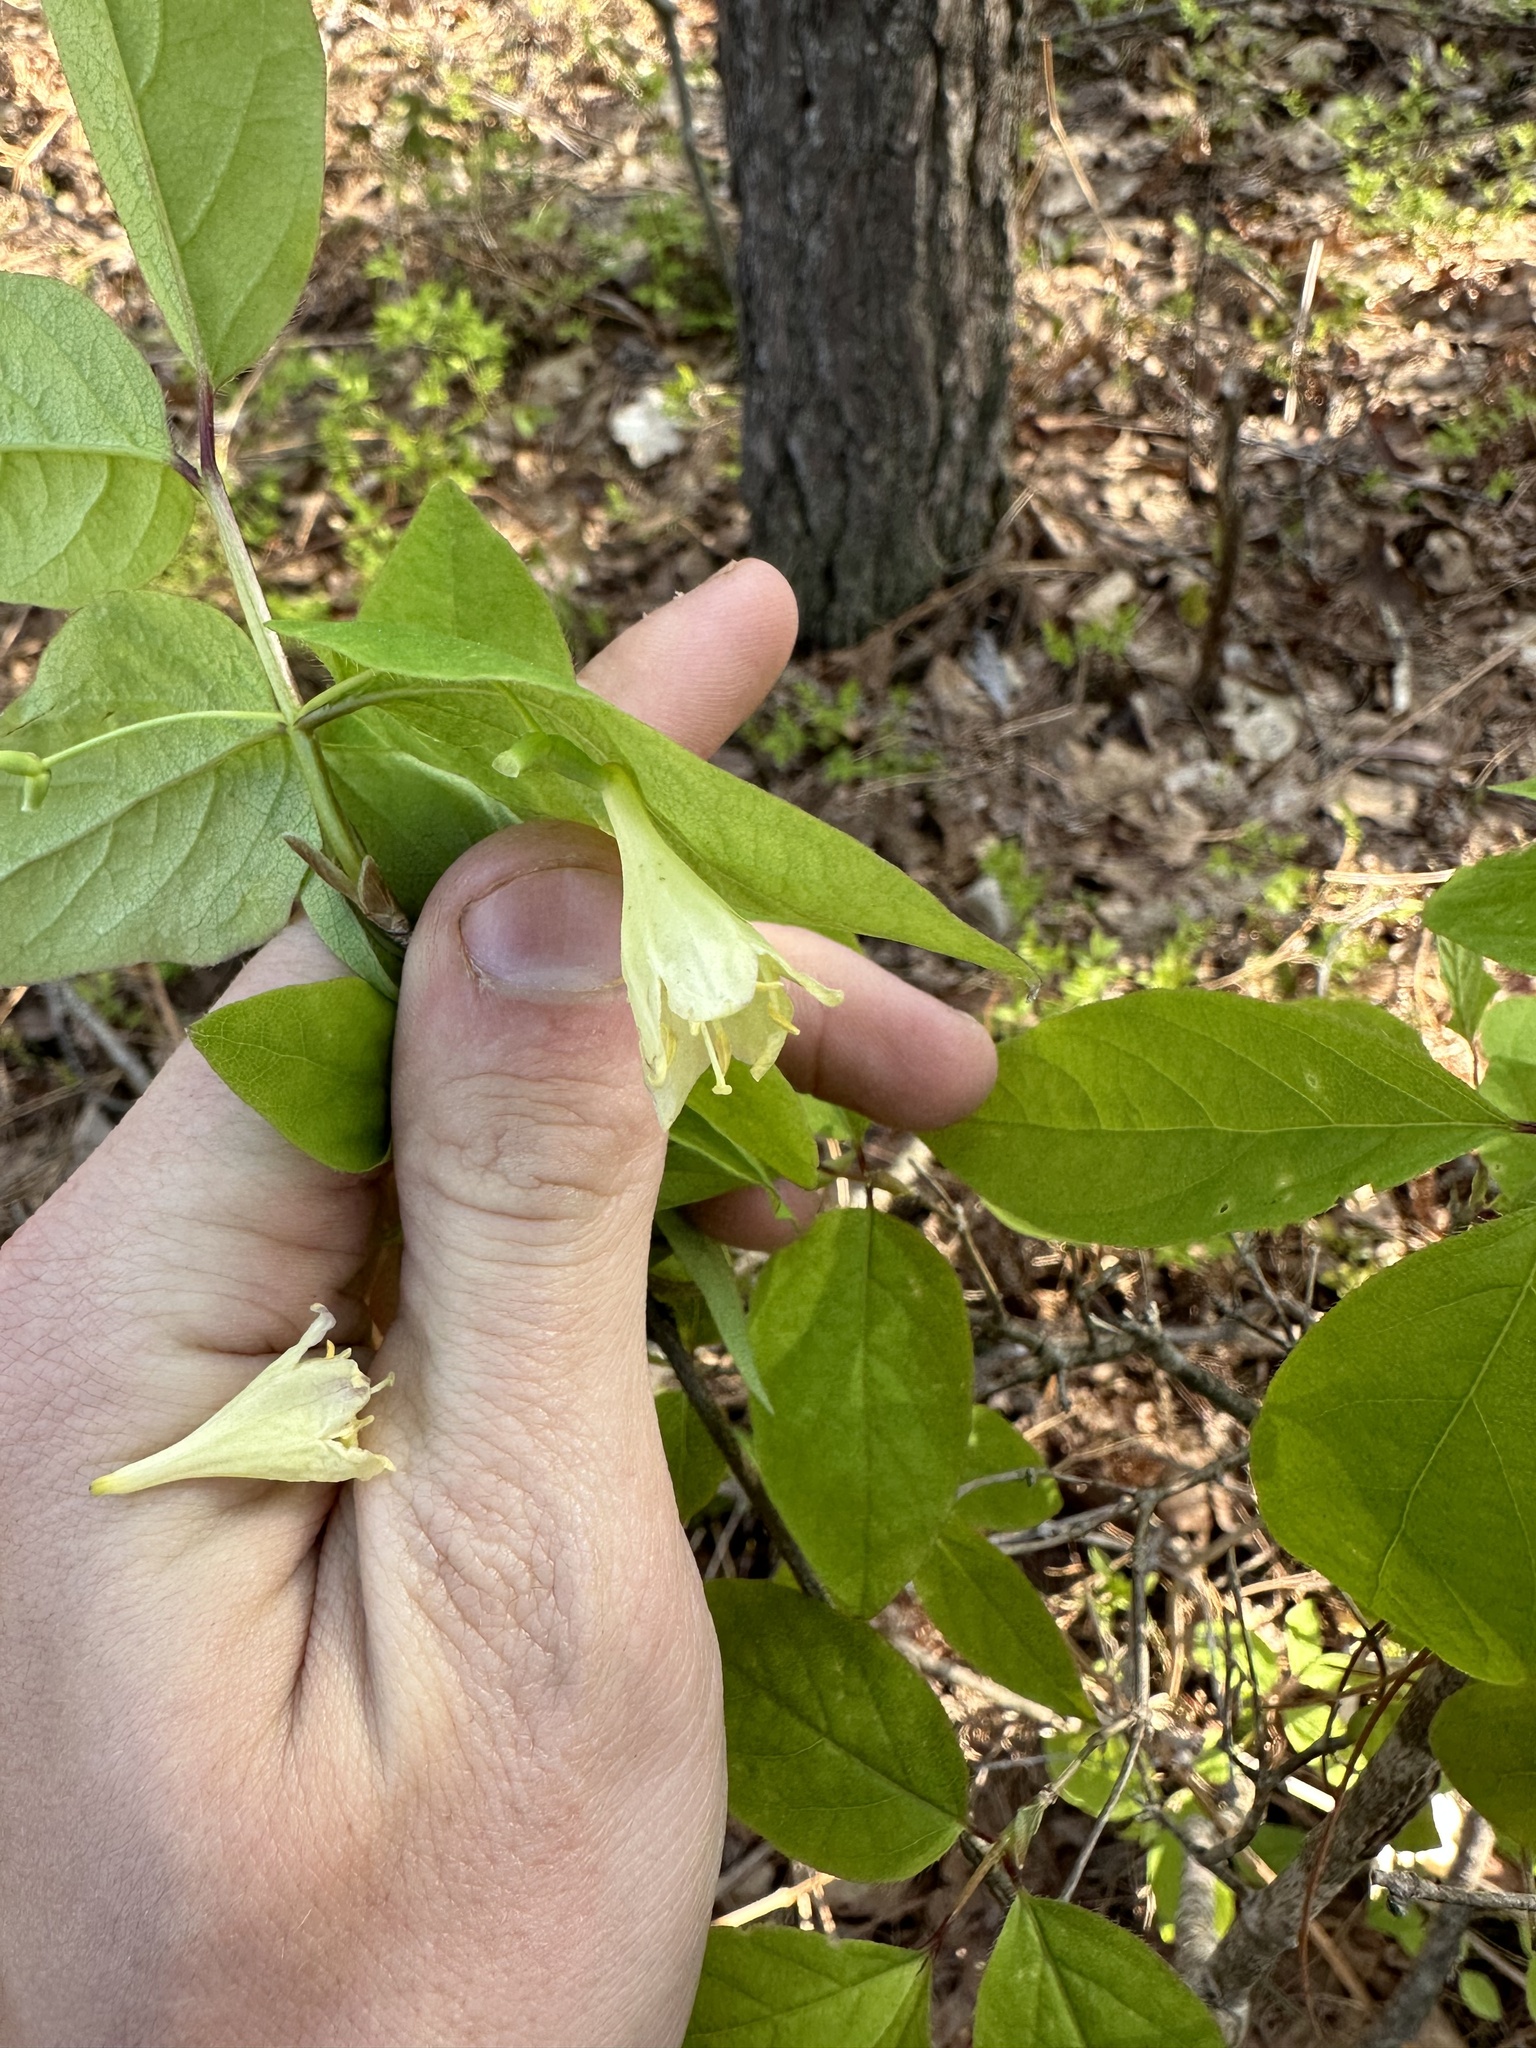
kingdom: Plantae
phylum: Tracheophyta
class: Magnoliopsida
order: Dipsacales
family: Caprifoliaceae
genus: Lonicera
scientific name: Lonicera canadensis
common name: American fly-honeysuckle
